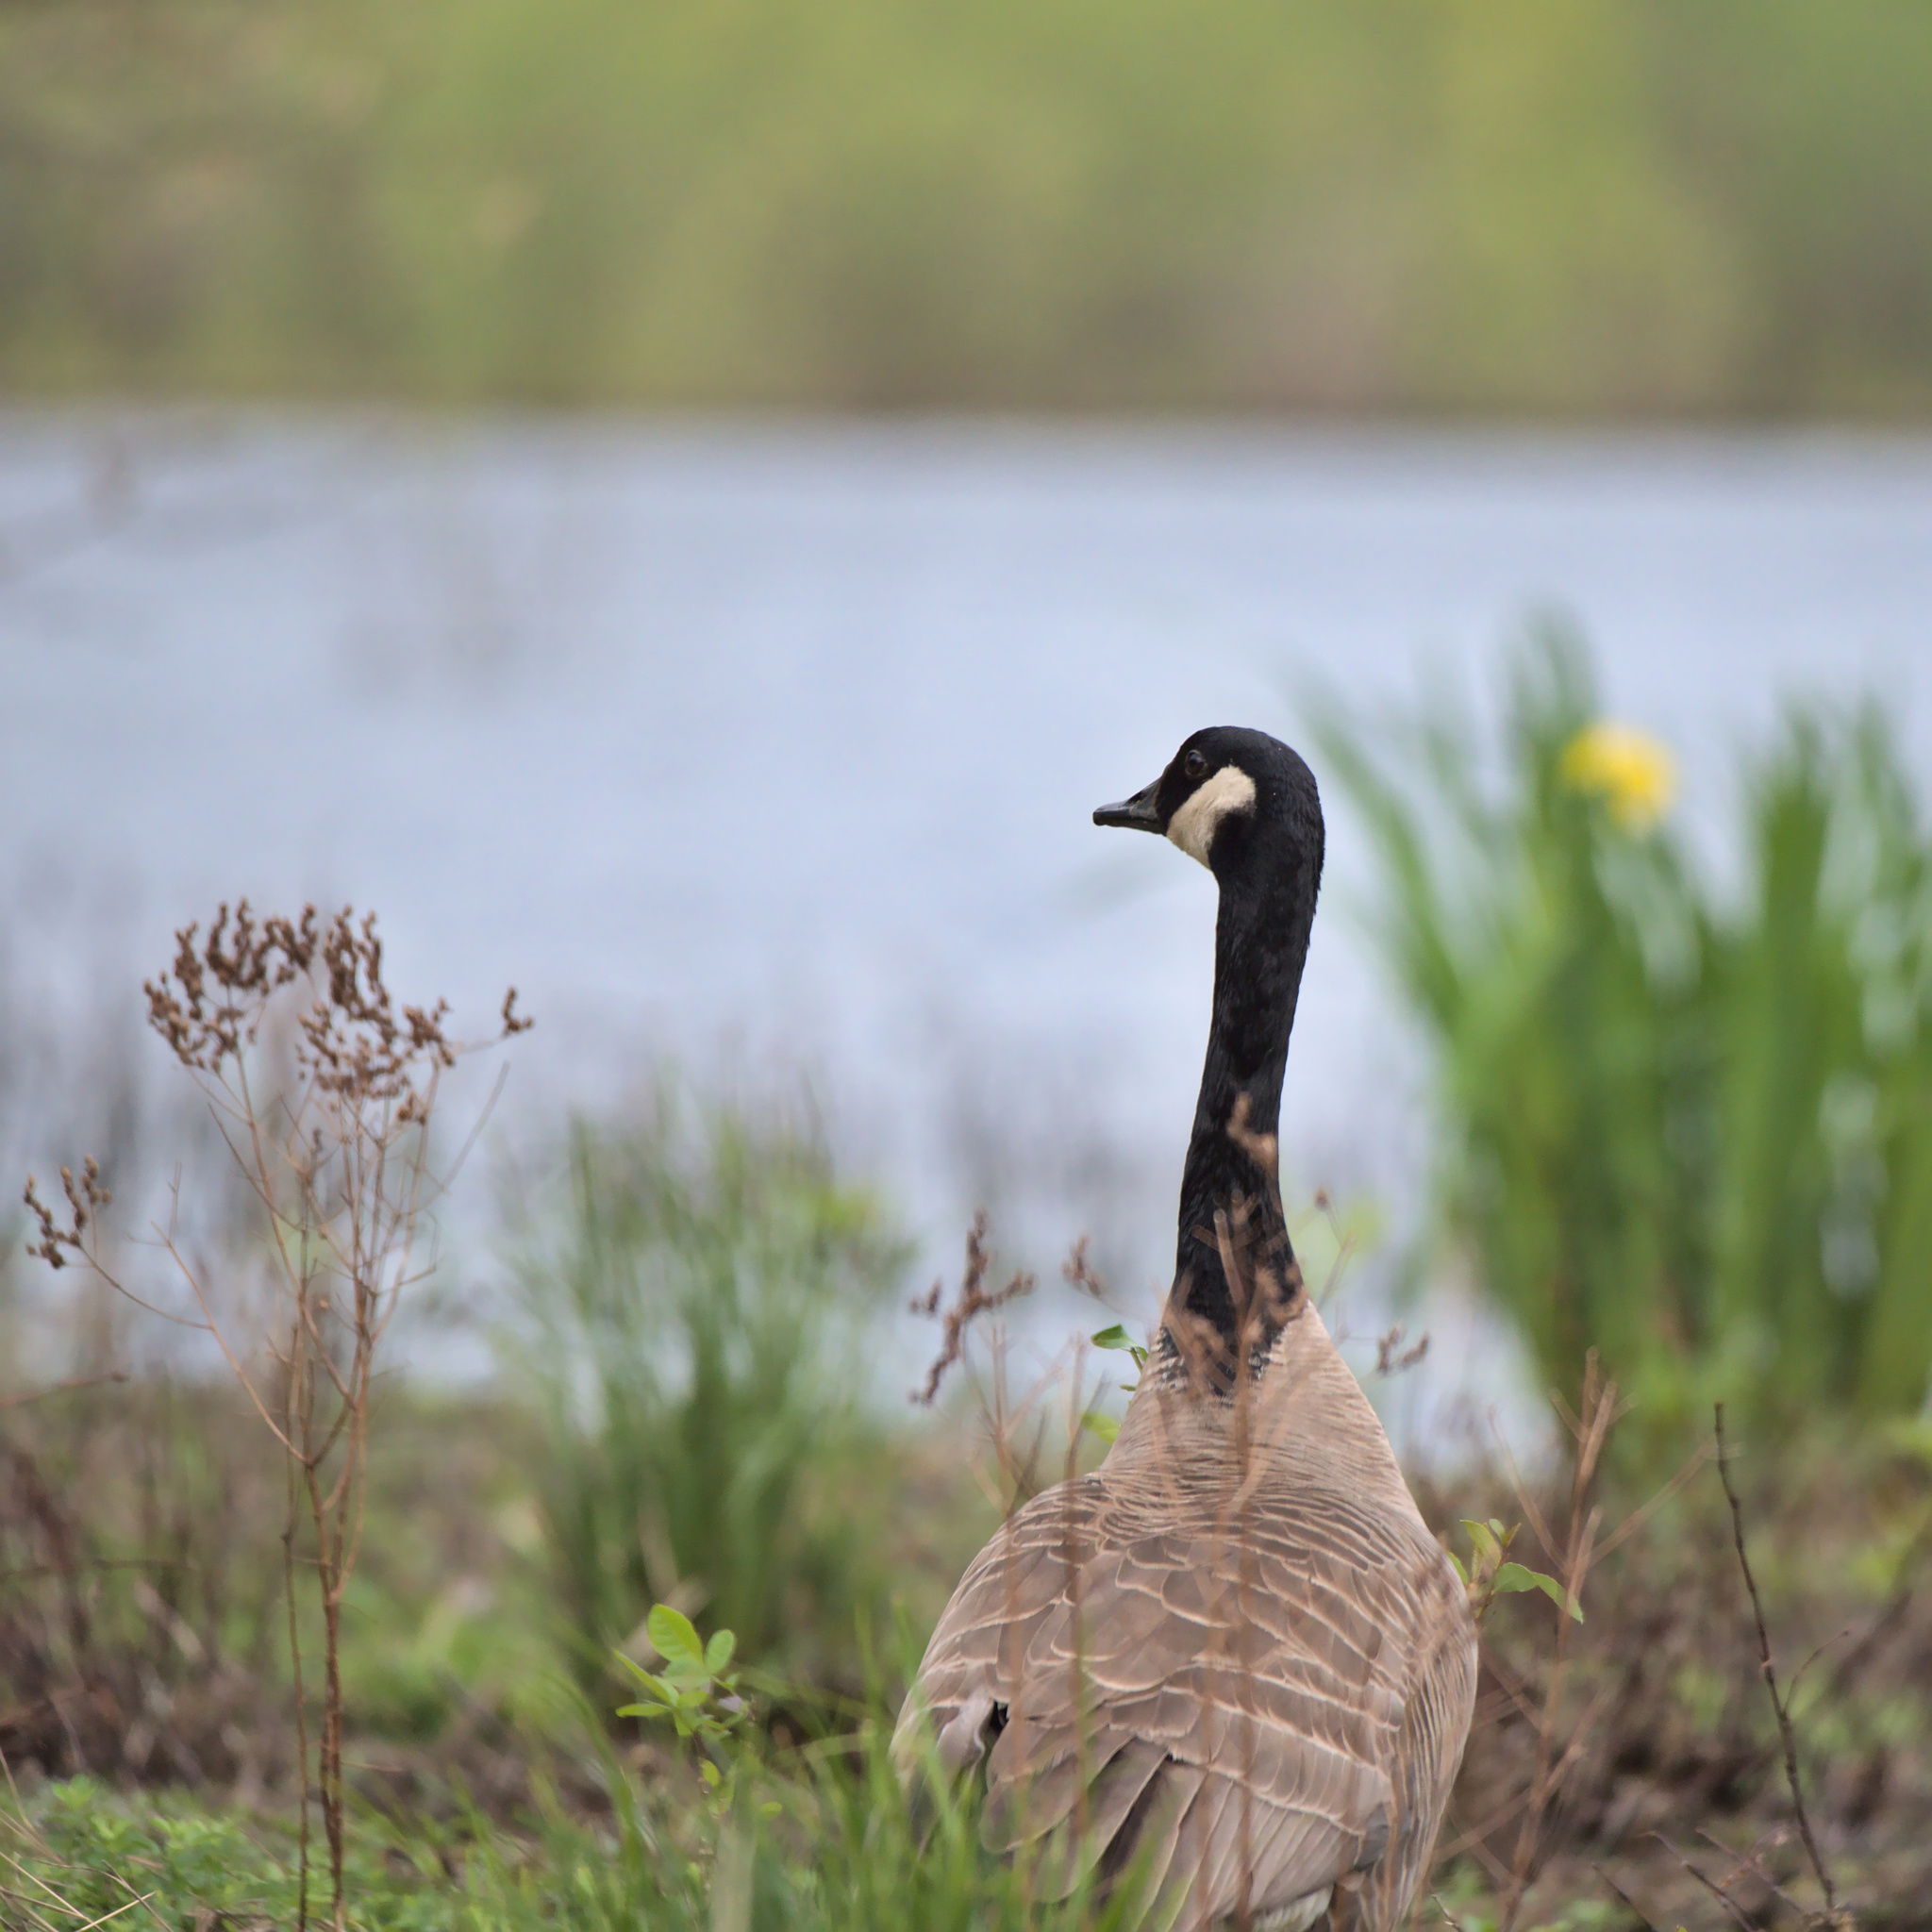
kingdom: Animalia
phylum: Chordata
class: Aves
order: Anseriformes
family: Anatidae
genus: Branta
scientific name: Branta canadensis
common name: Canada goose
